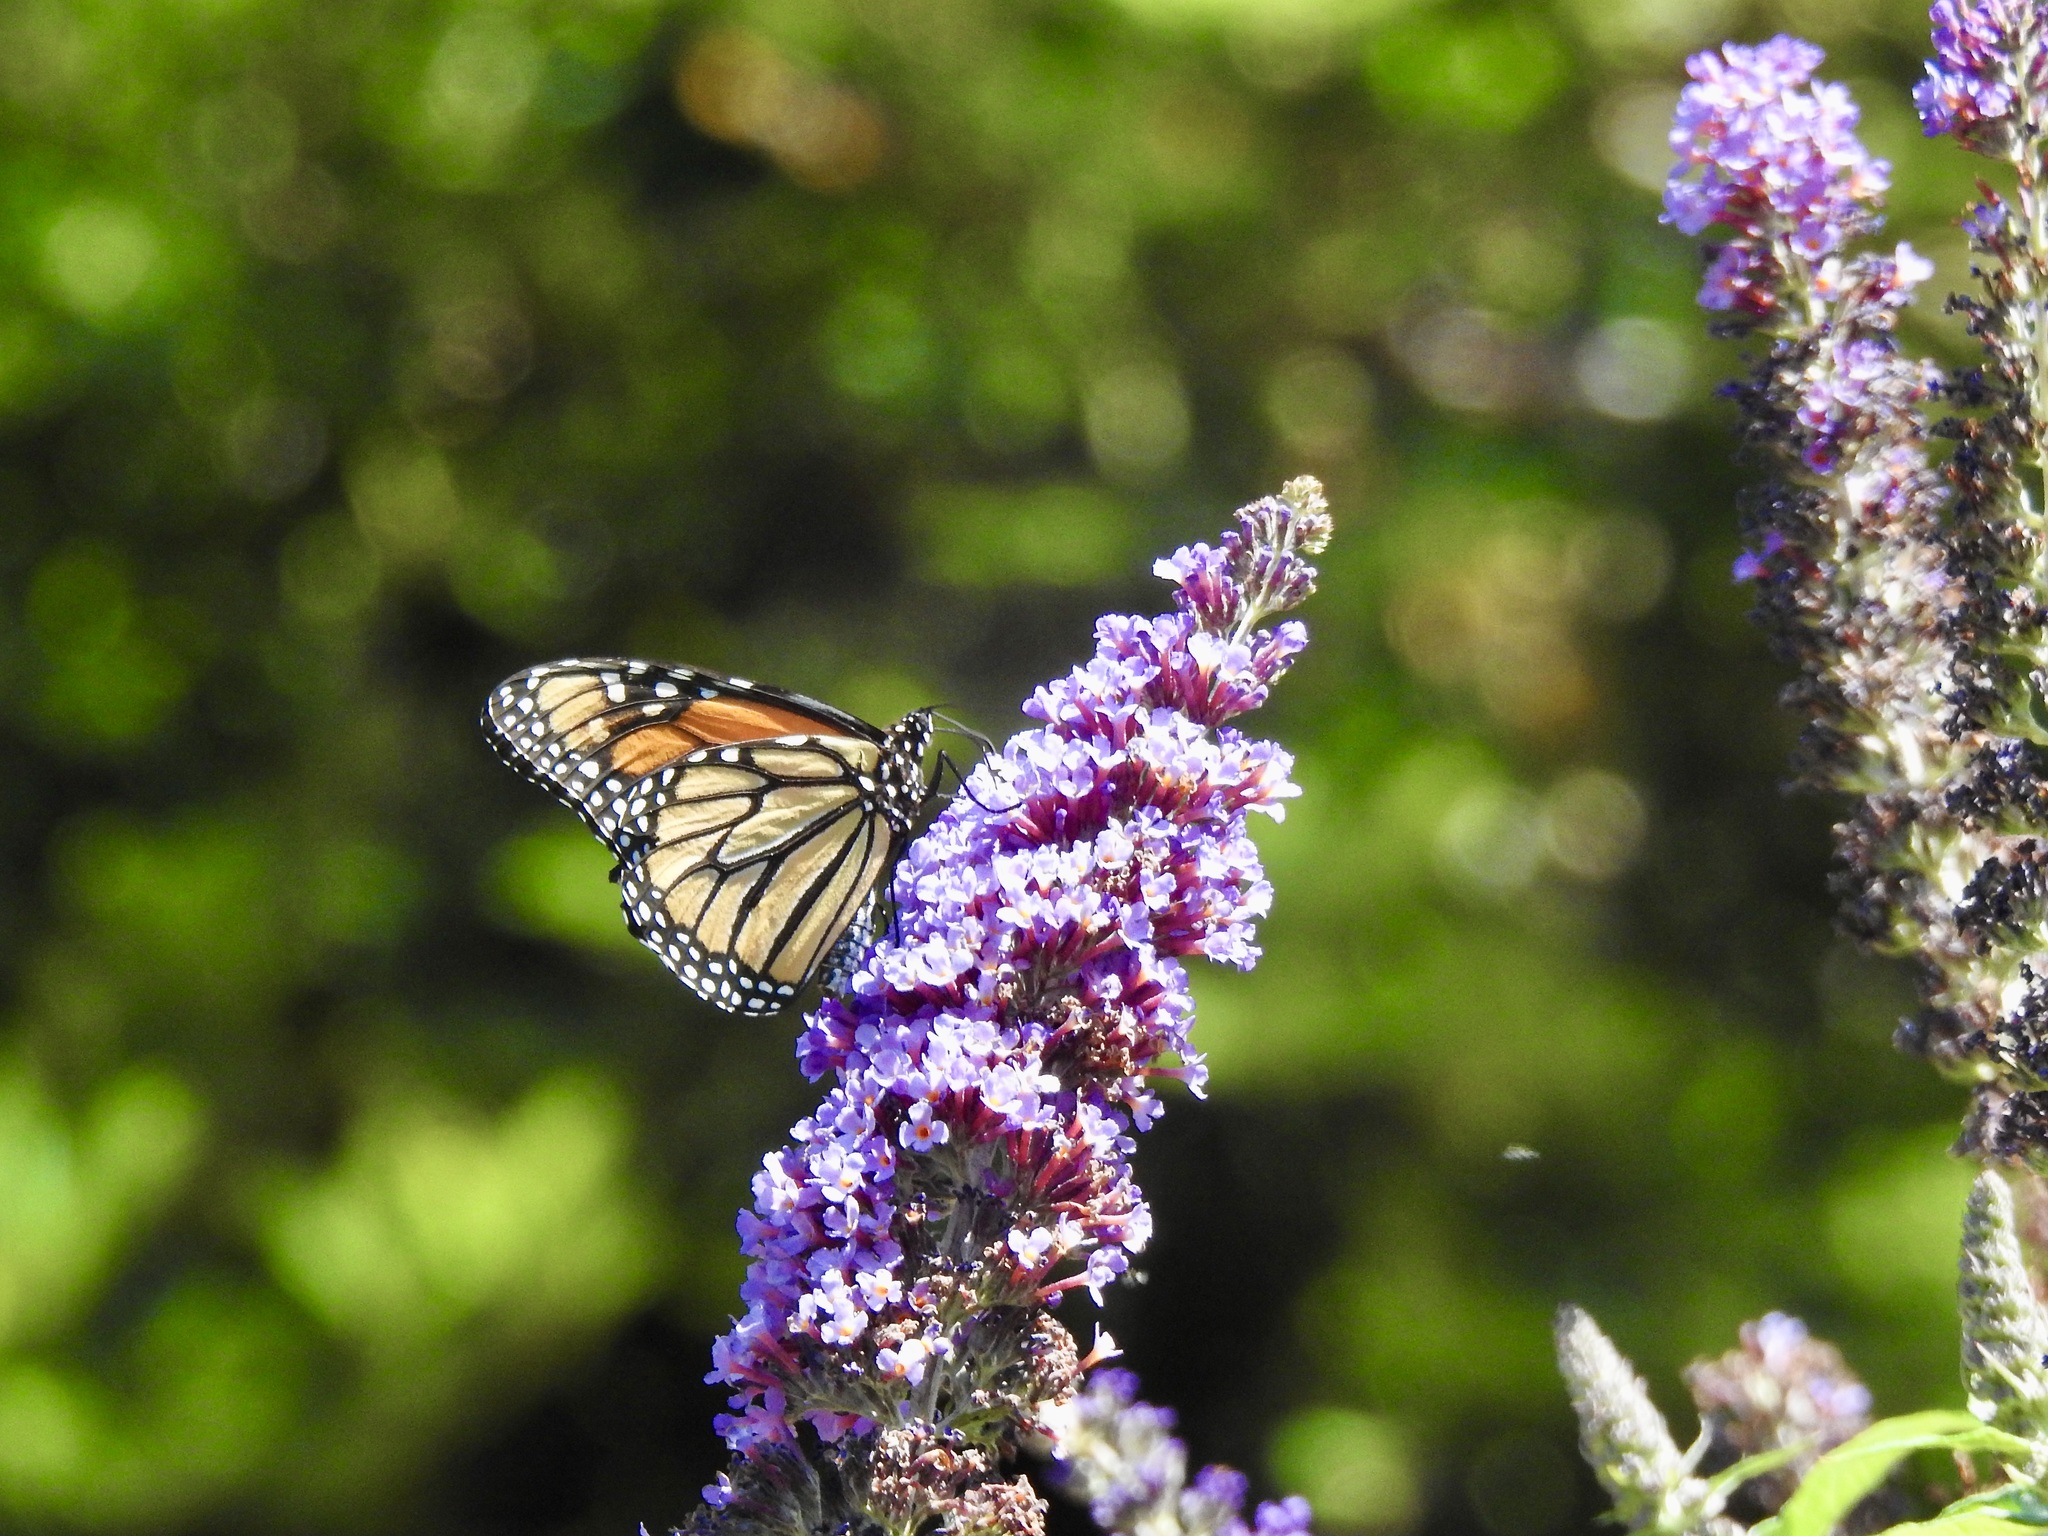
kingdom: Animalia
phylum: Arthropoda
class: Insecta
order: Lepidoptera
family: Nymphalidae
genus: Danaus
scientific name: Danaus plexippus
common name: Monarch
